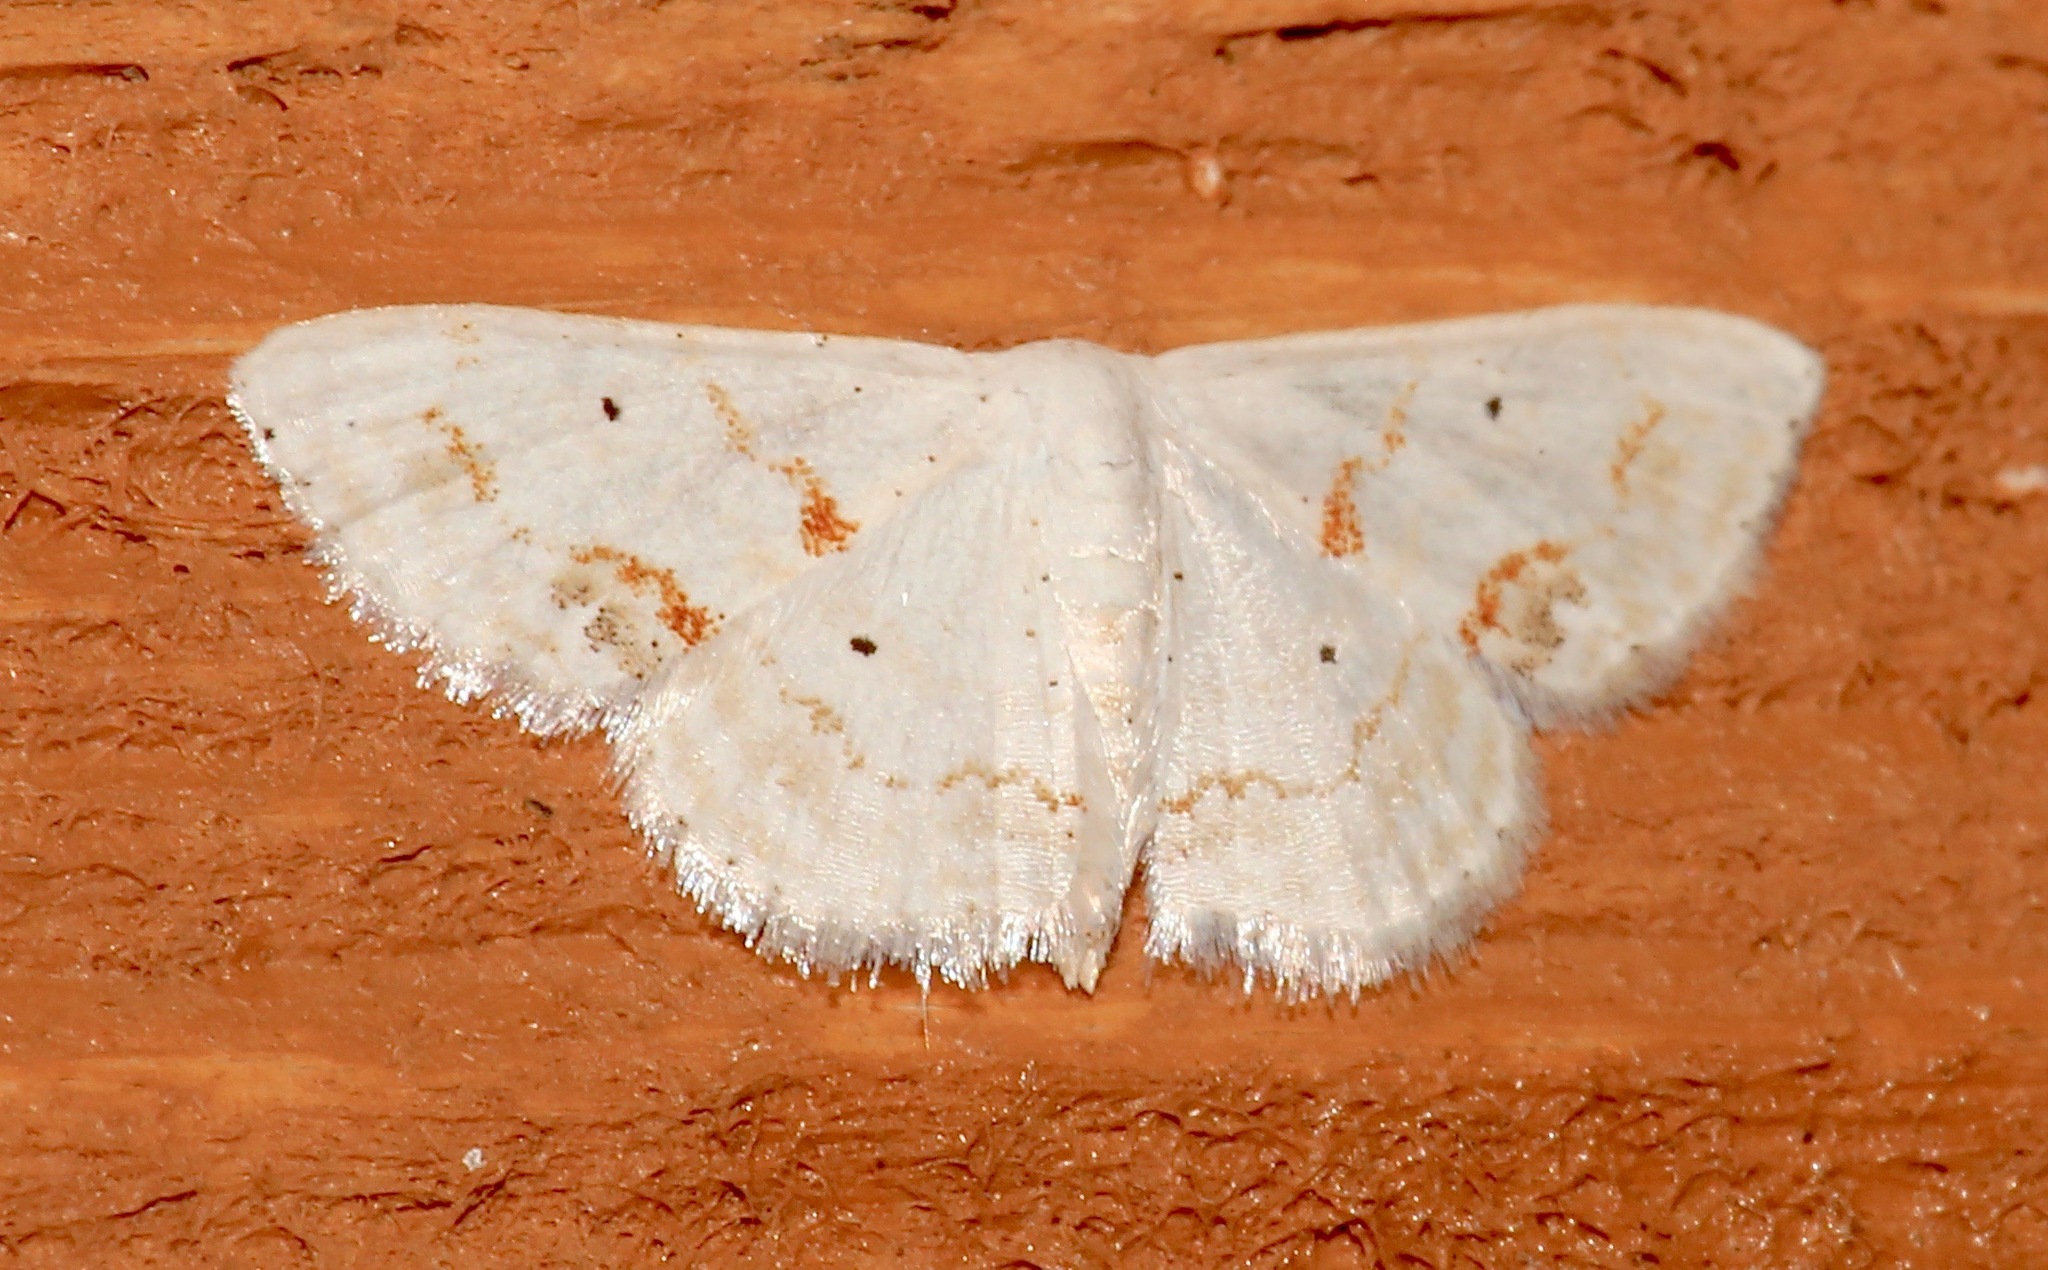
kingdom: Animalia
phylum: Arthropoda
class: Insecta
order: Lepidoptera
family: Geometridae
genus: Scopula
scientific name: Scopula lautaria
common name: Small frosted wave moth
